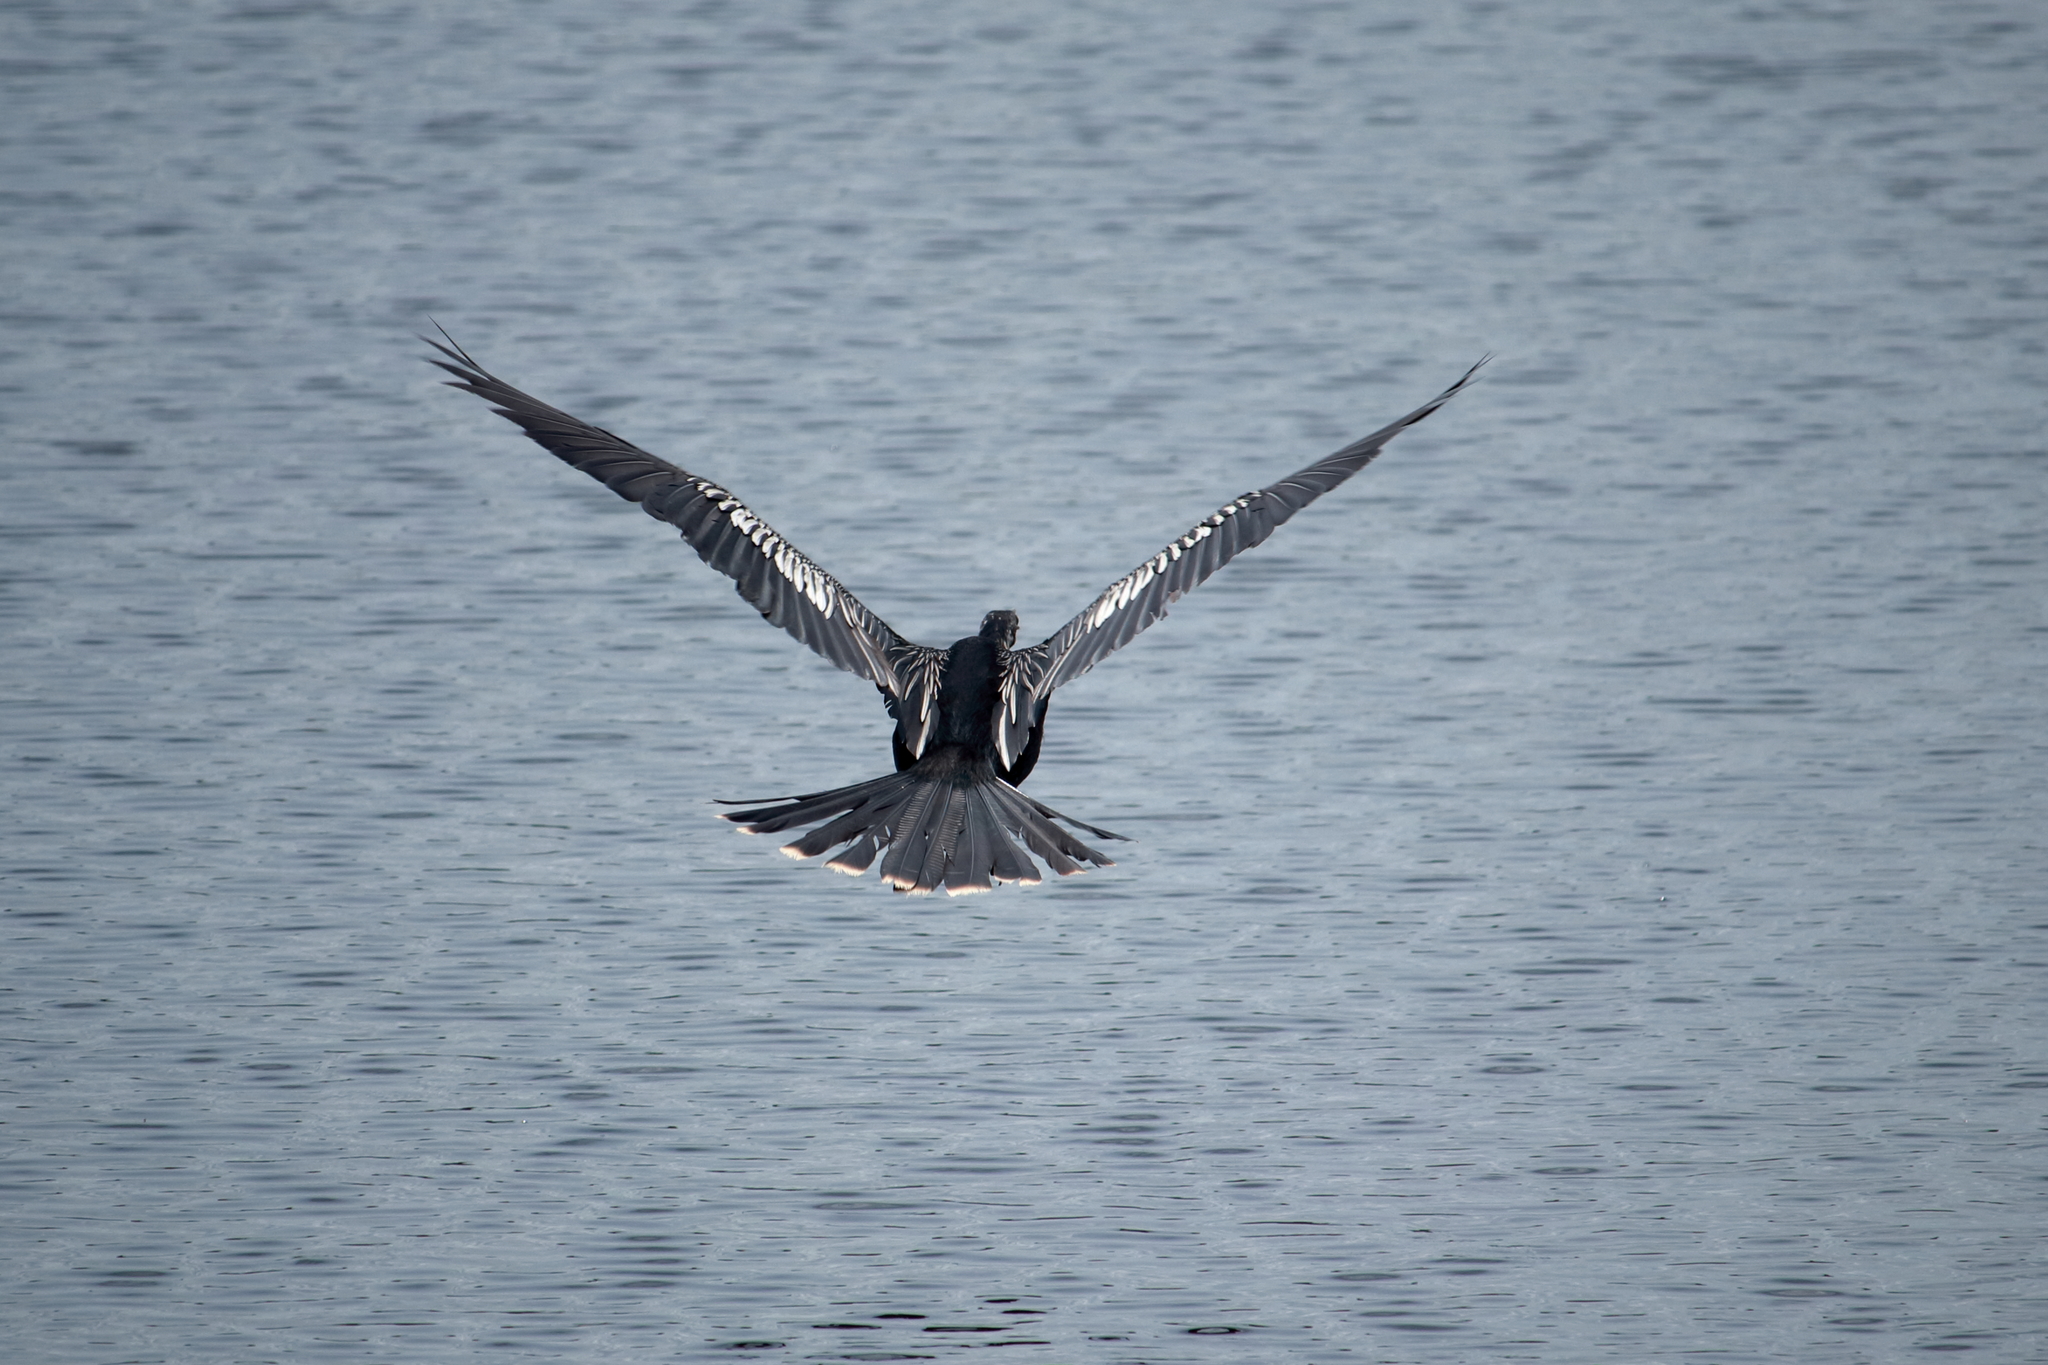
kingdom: Animalia
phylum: Chordata
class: Aves
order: Suliformes
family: Anhingidae
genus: Anhinga
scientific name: Anhinga anhinga
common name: Anhinga
